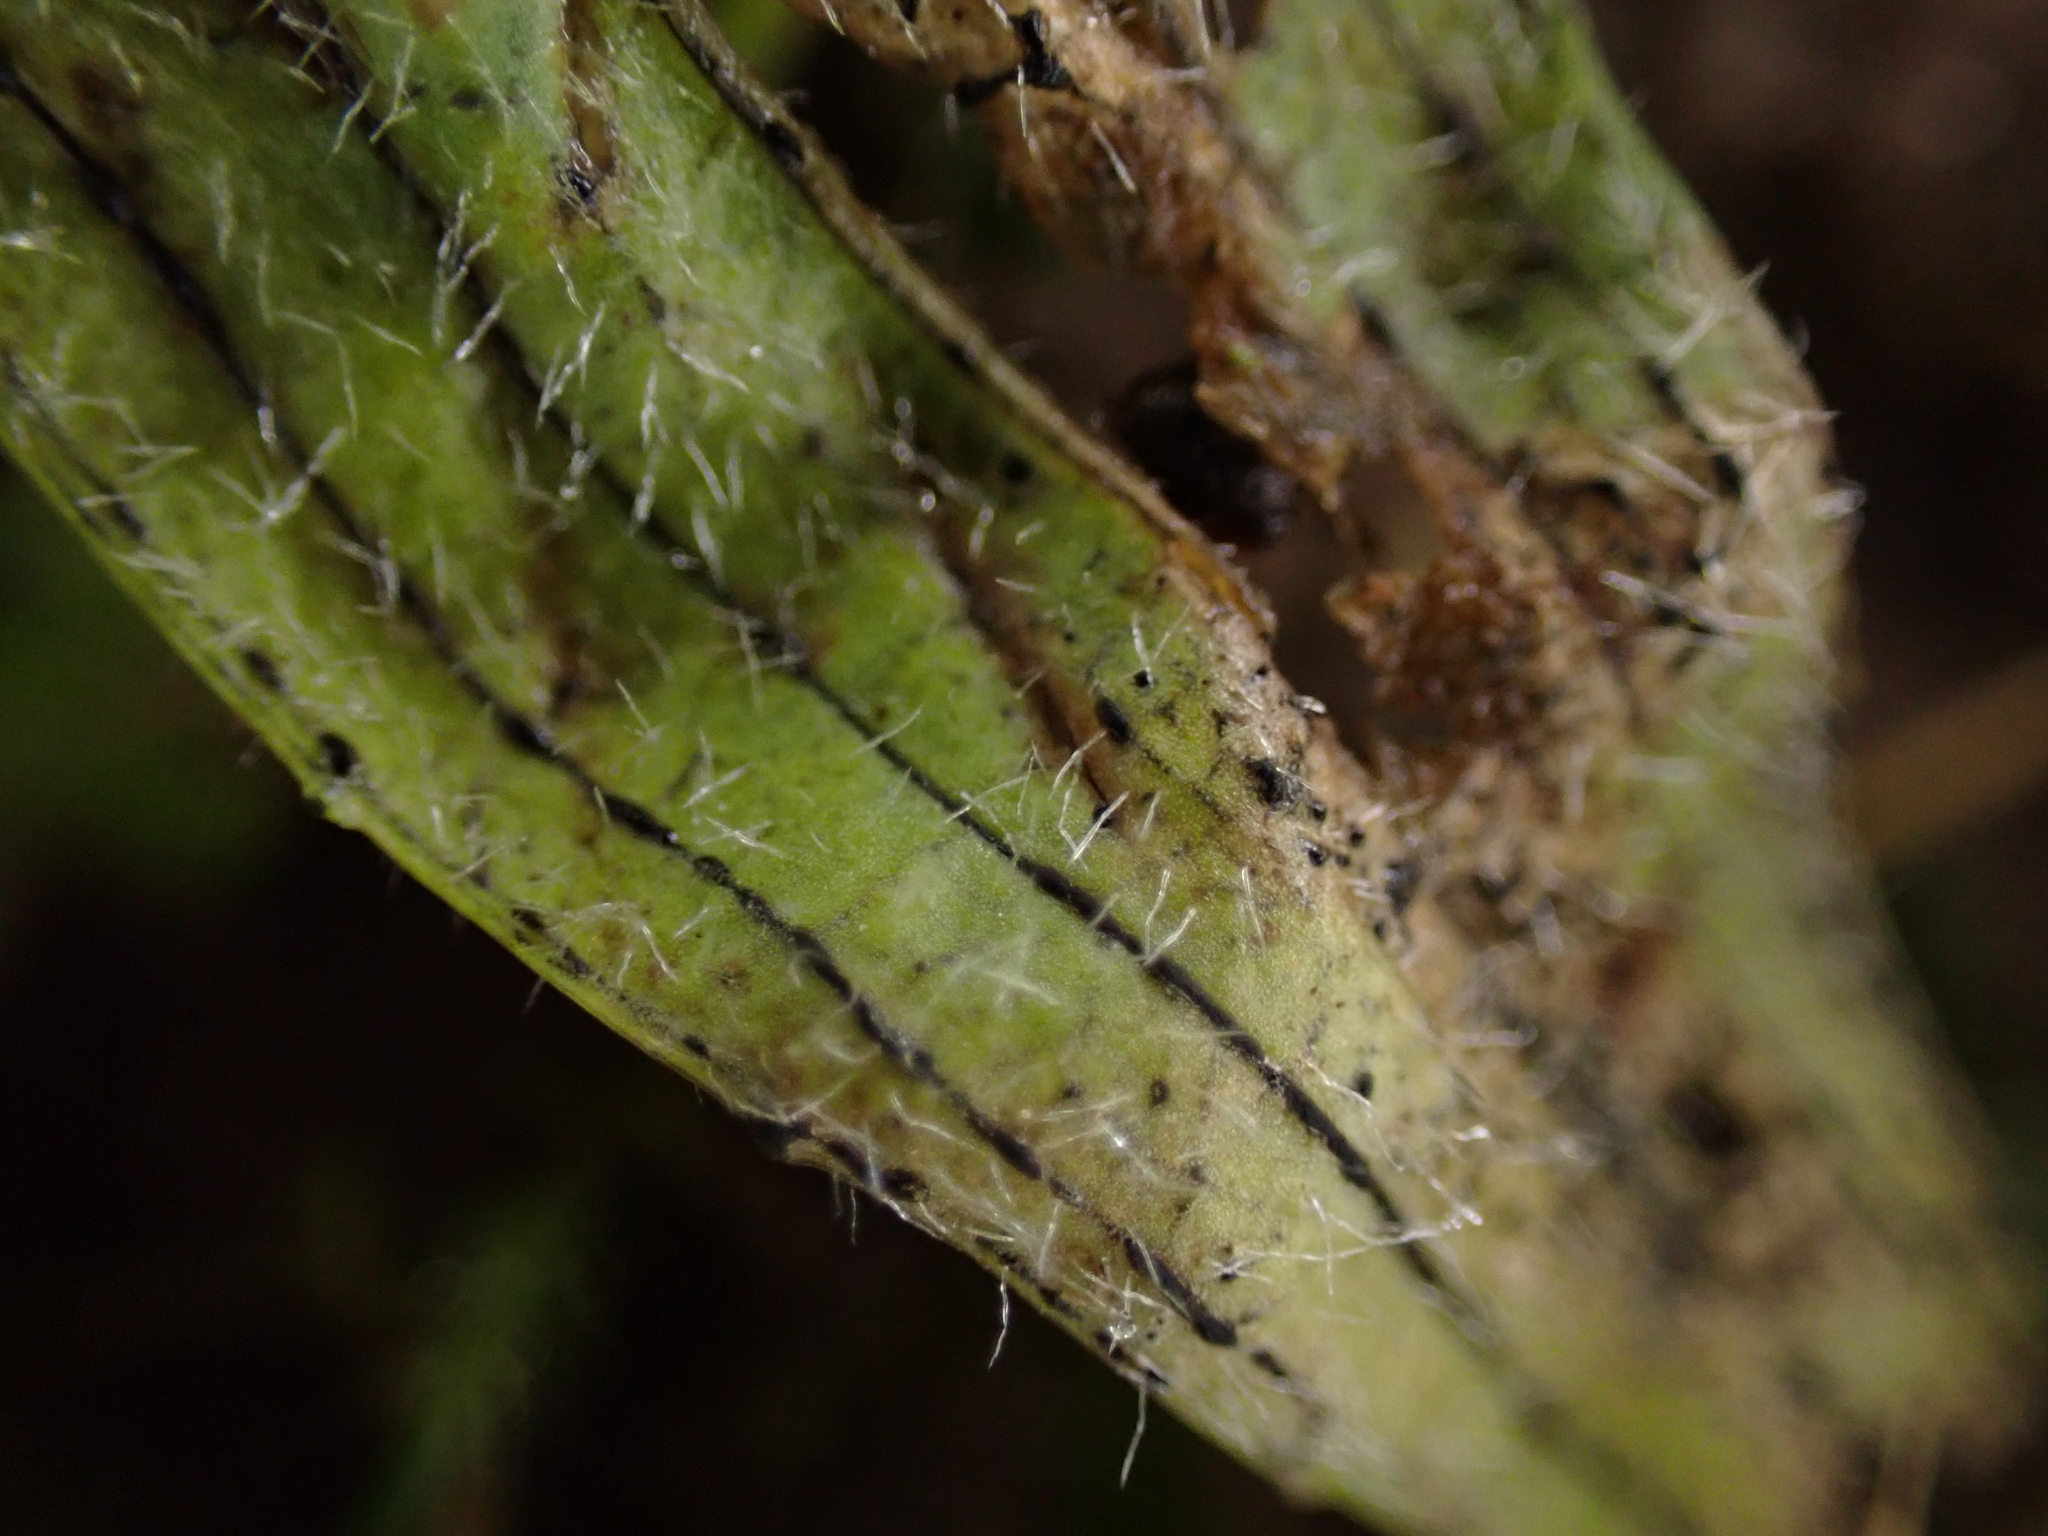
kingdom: Fungi
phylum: Ascomycota
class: Leotiomycetes
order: Helotiales
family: Drepanopezizaceae
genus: Spilopodia
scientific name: Spilopodia nervisequa
